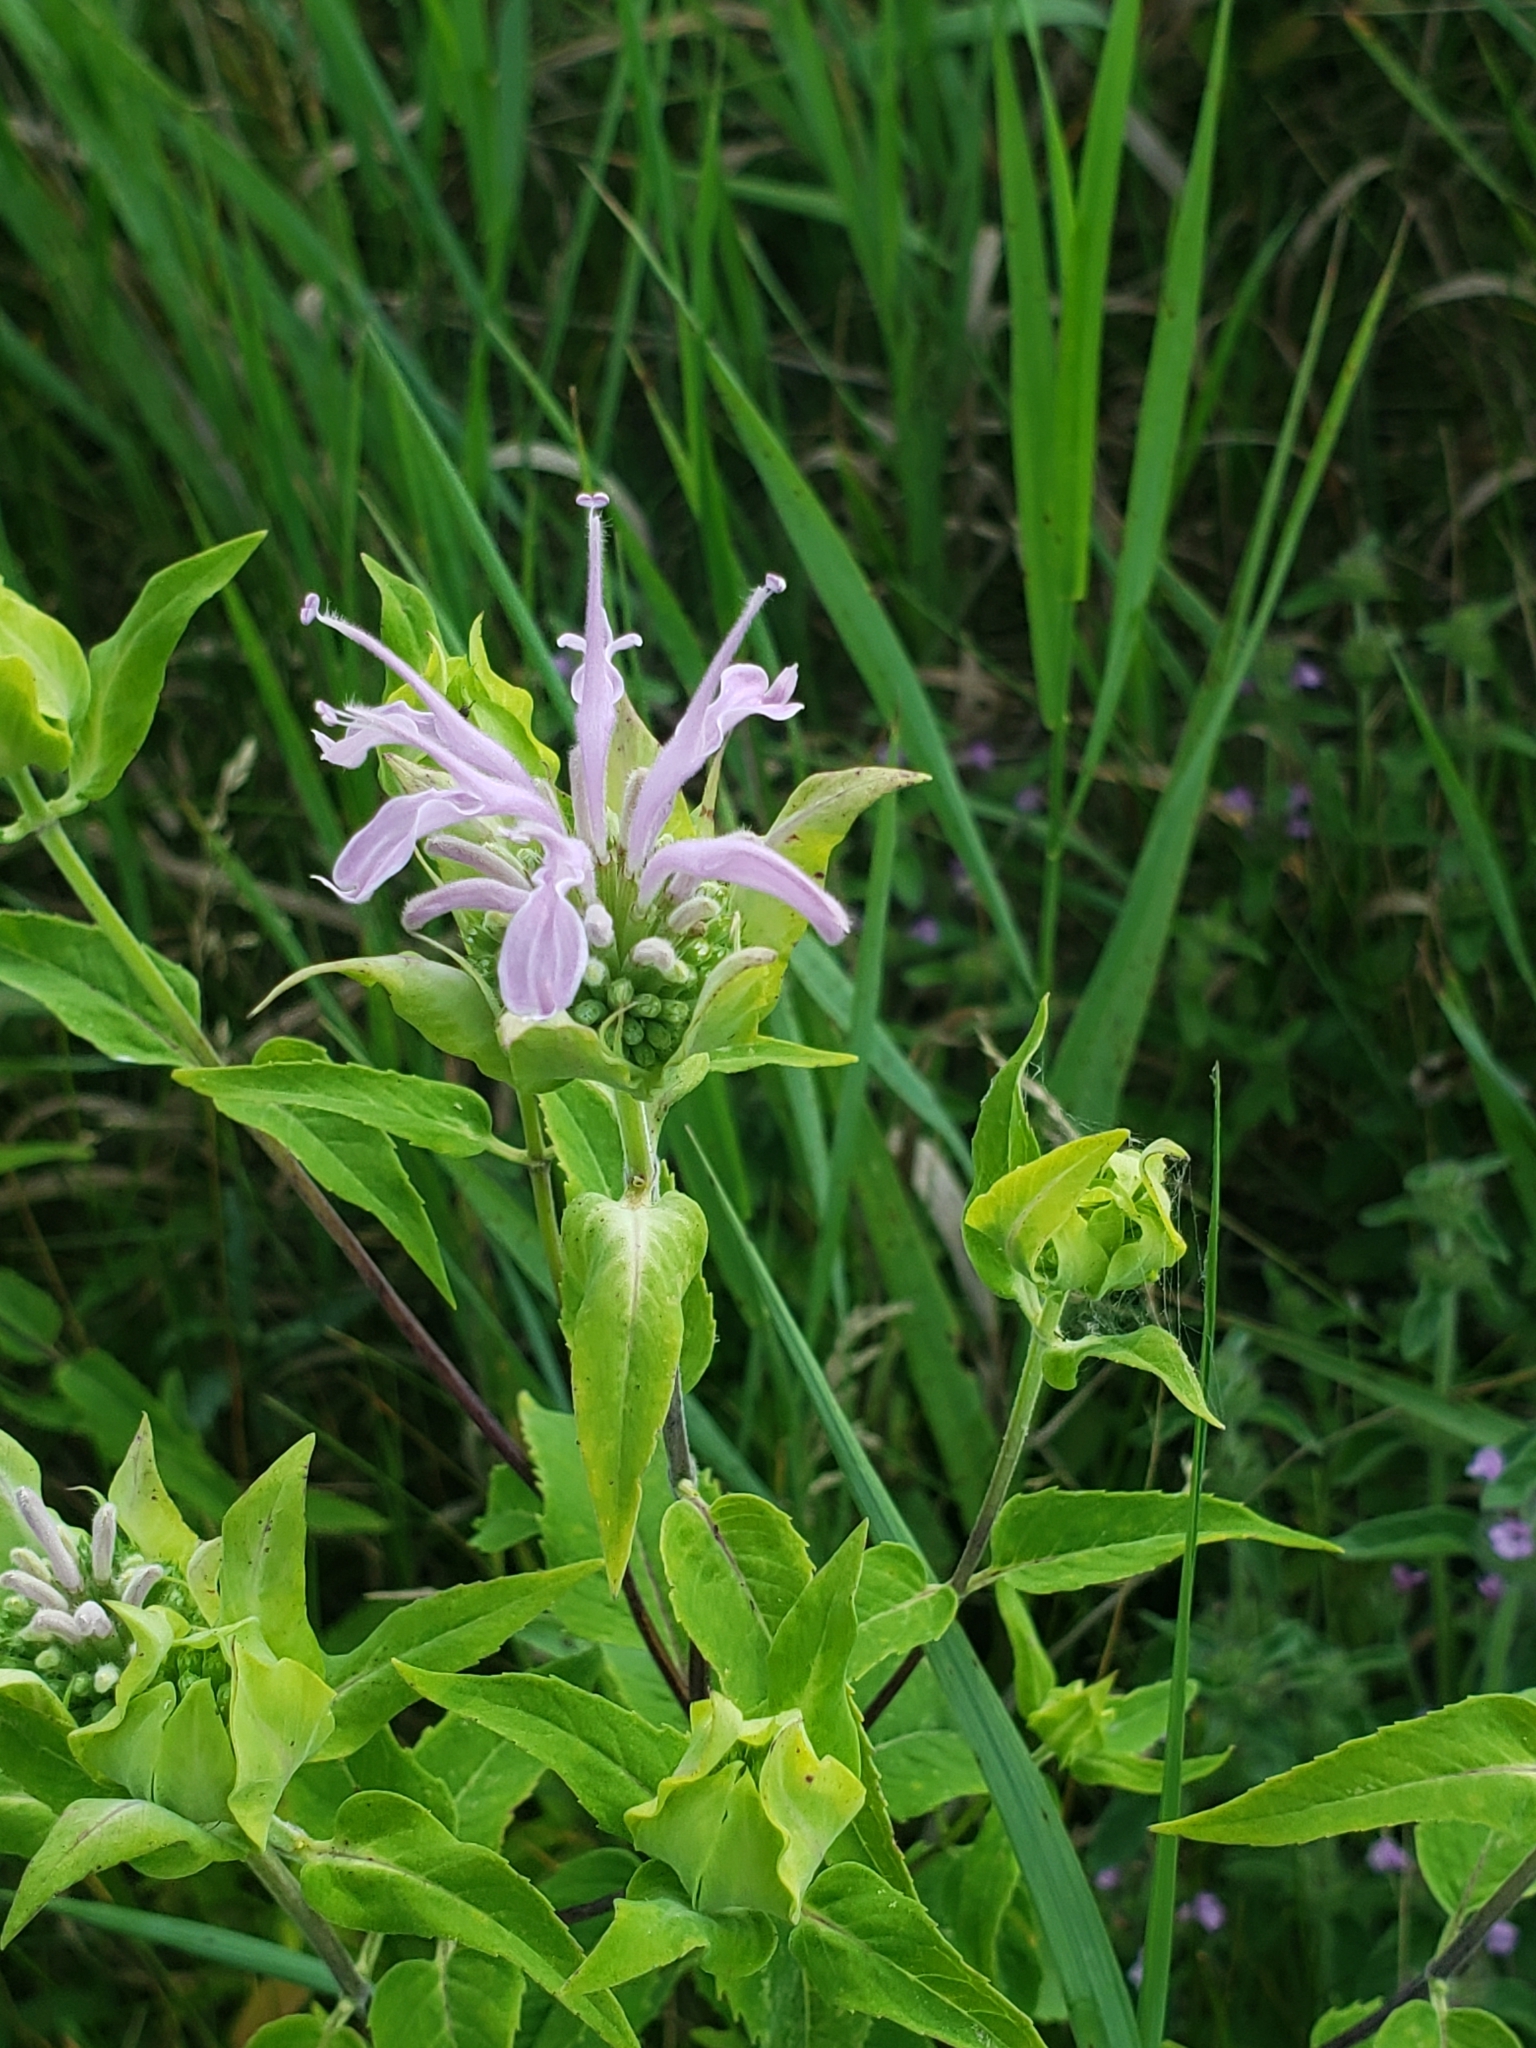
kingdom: Plantae
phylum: Tracheophyta
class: Magnoliopsida
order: Lamiales
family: Lamiaceae
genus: Monarda
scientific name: Monarda fistulosa
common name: Purple beebalm
